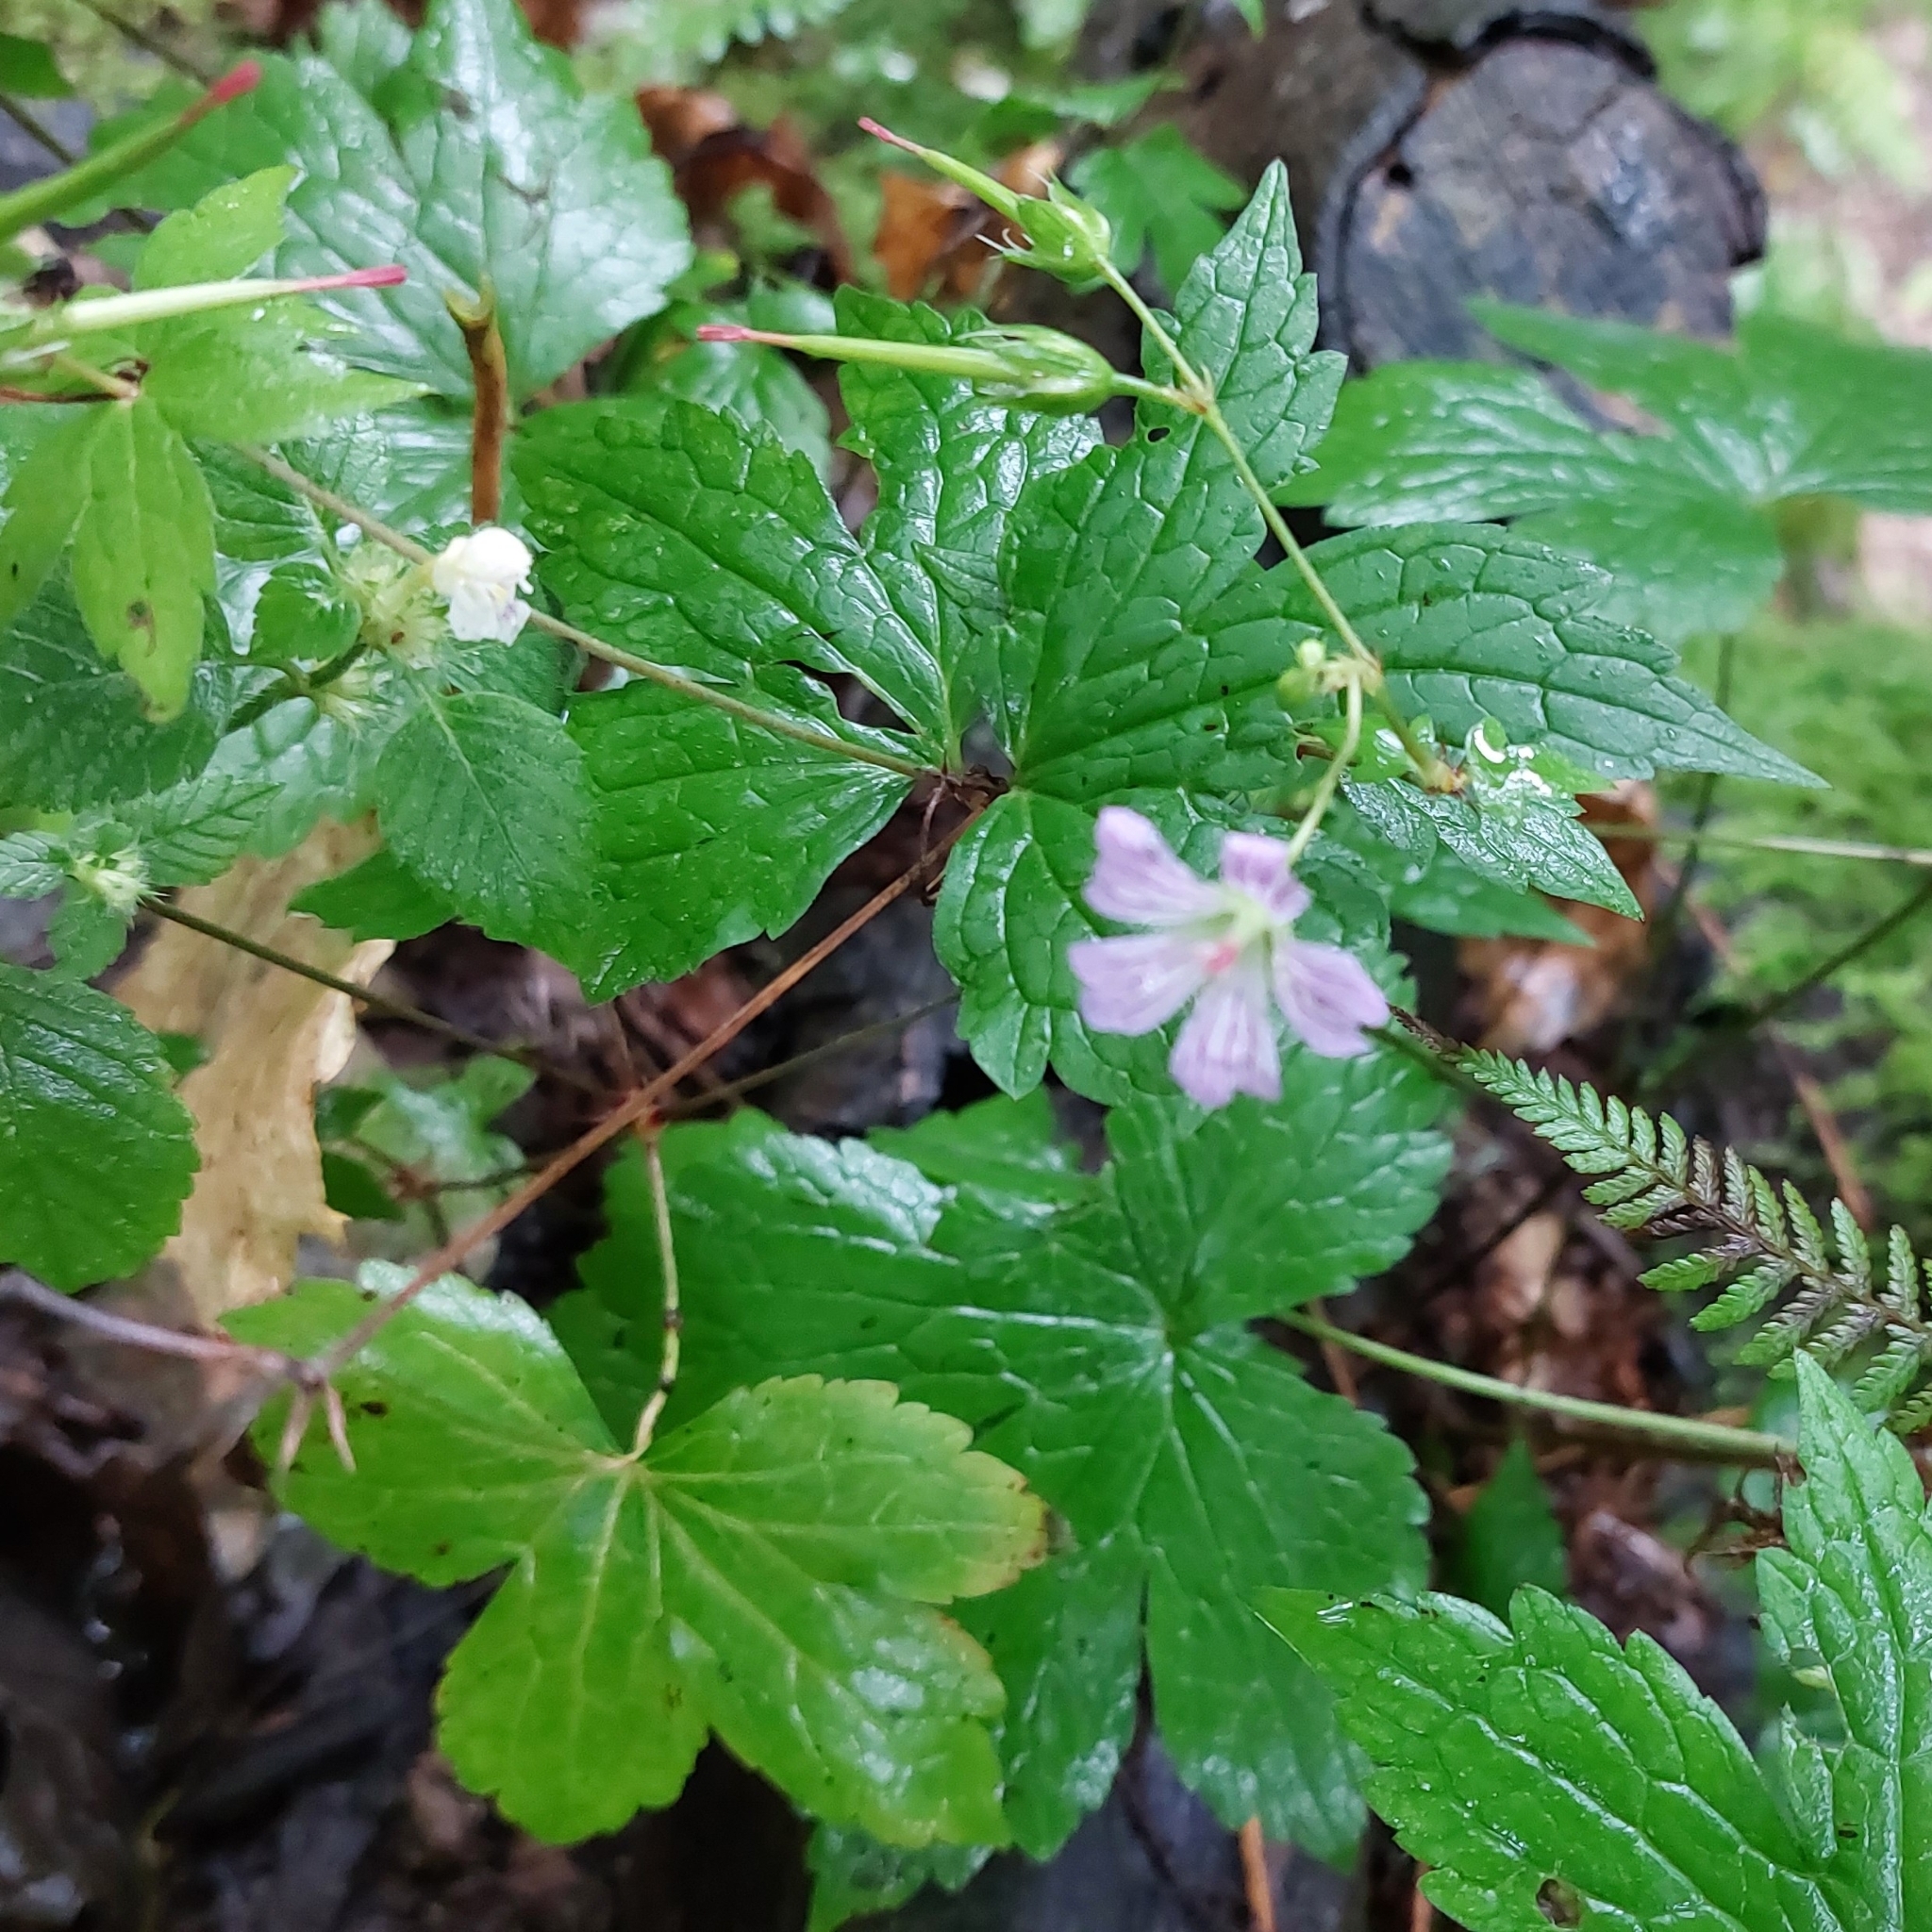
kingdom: Plantae
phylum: Tracheophyta
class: Magnoliopsida
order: Geraniales
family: Geraniaceae
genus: Geranium
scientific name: Geranium nodosum
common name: Knotted crane's-bill
